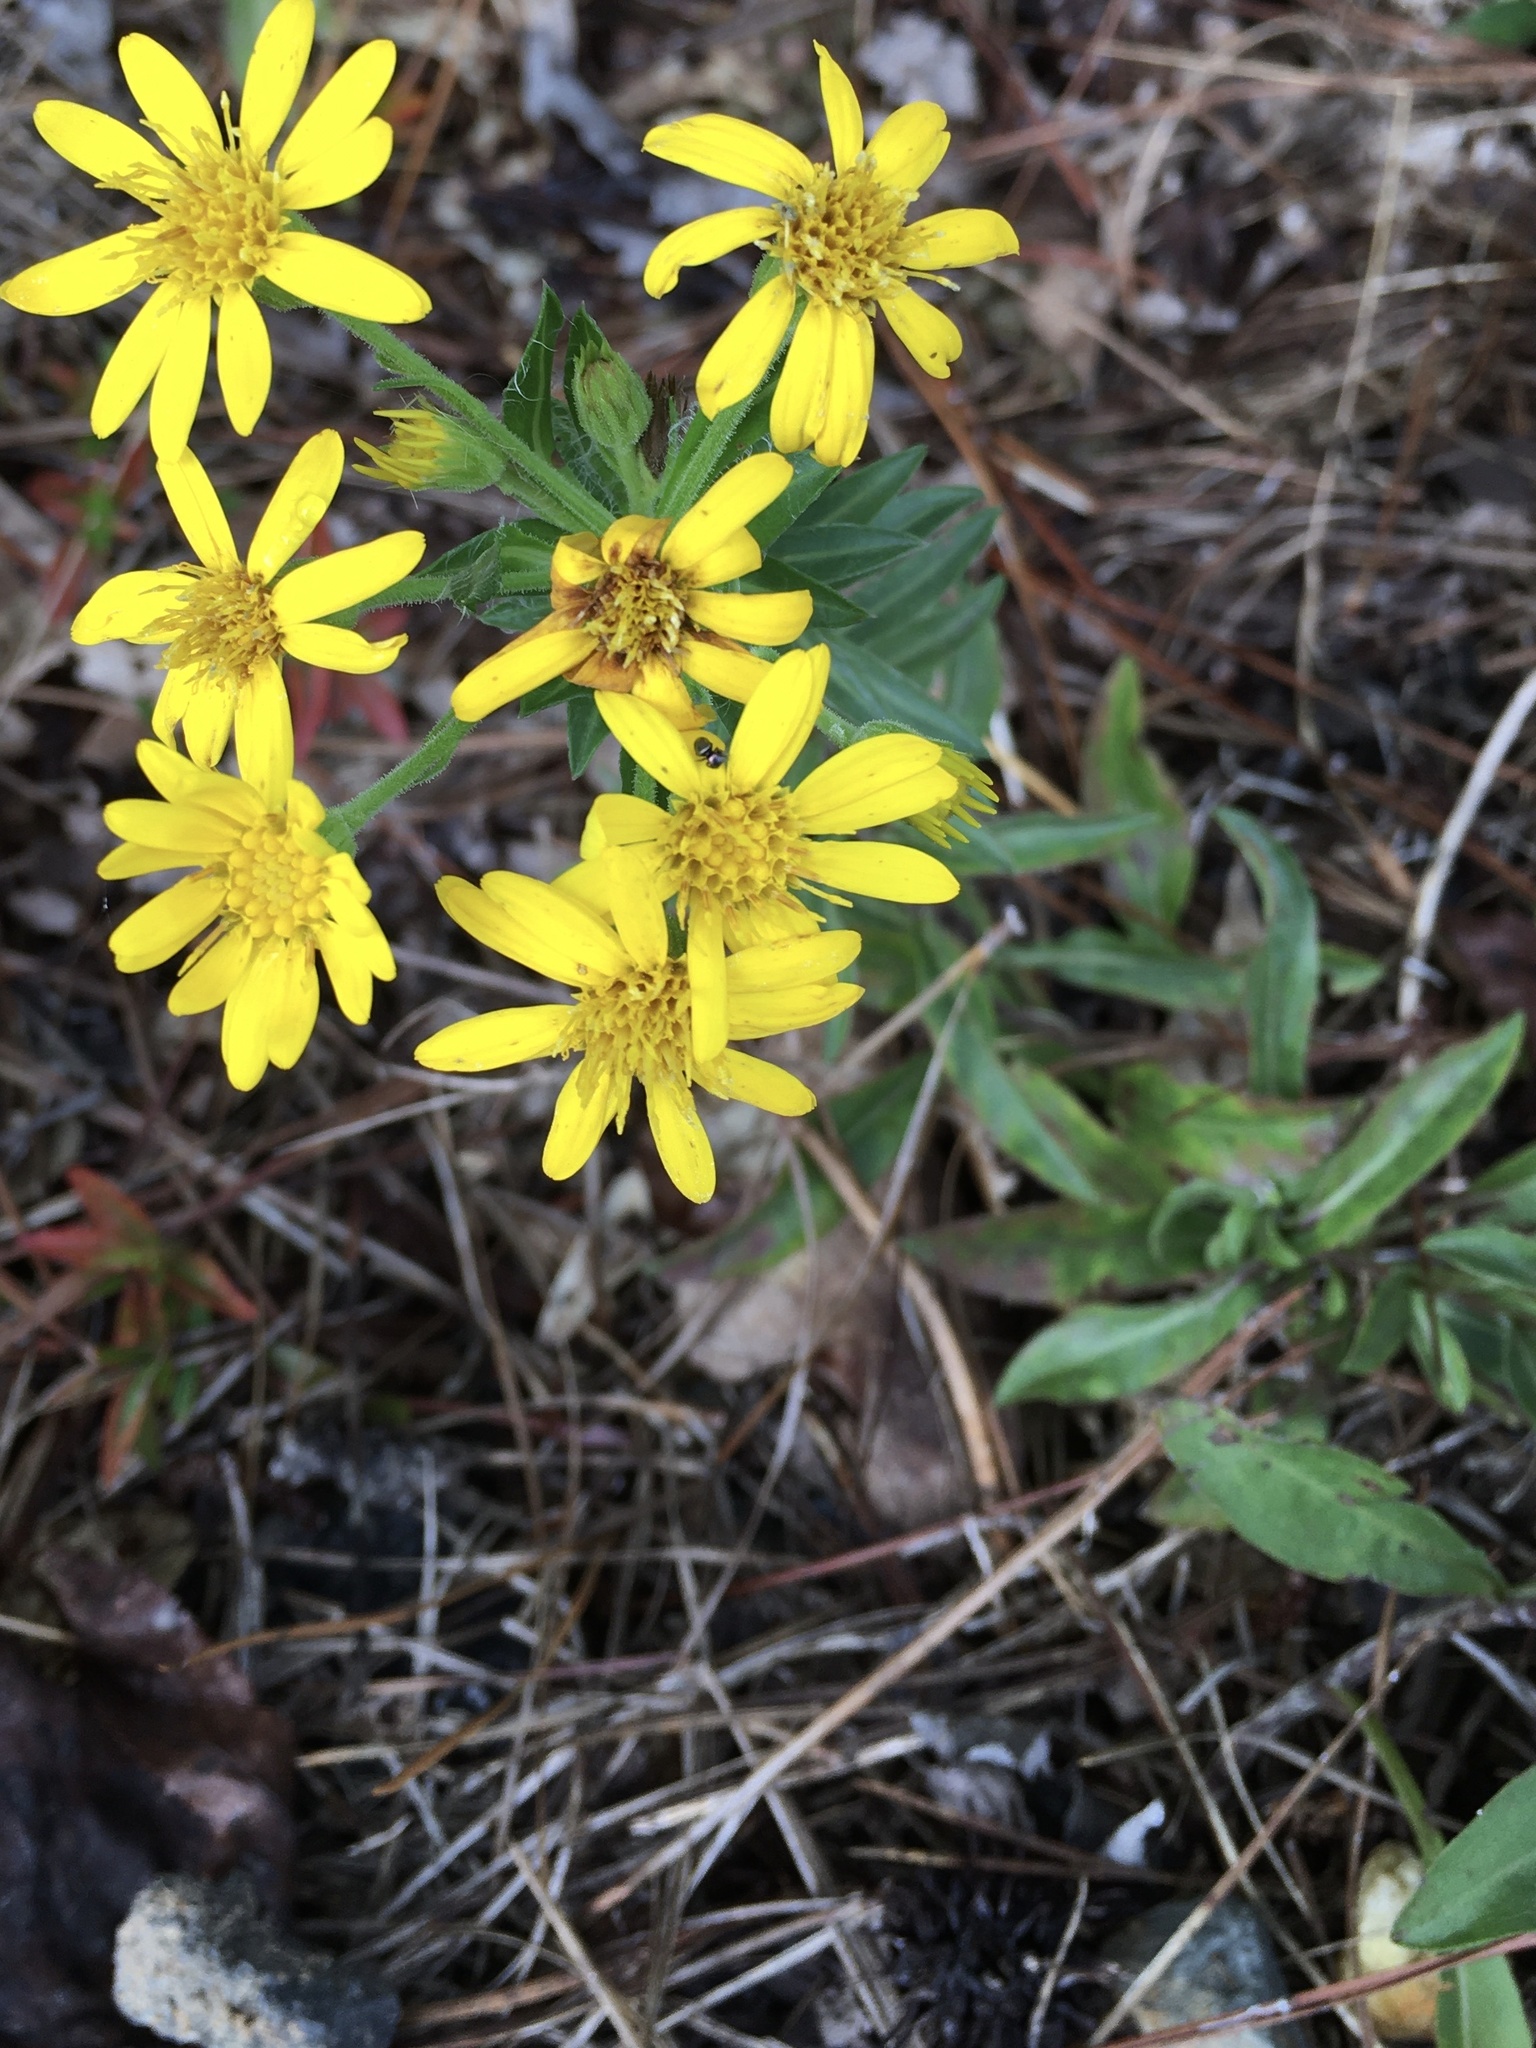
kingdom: Plantae
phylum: Tracheophyta
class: Magnoliopsida
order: Asterales
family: Asteraceae
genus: Chrysopsis
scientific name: Chrysopsis mariana
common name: Maryland golden-aster
